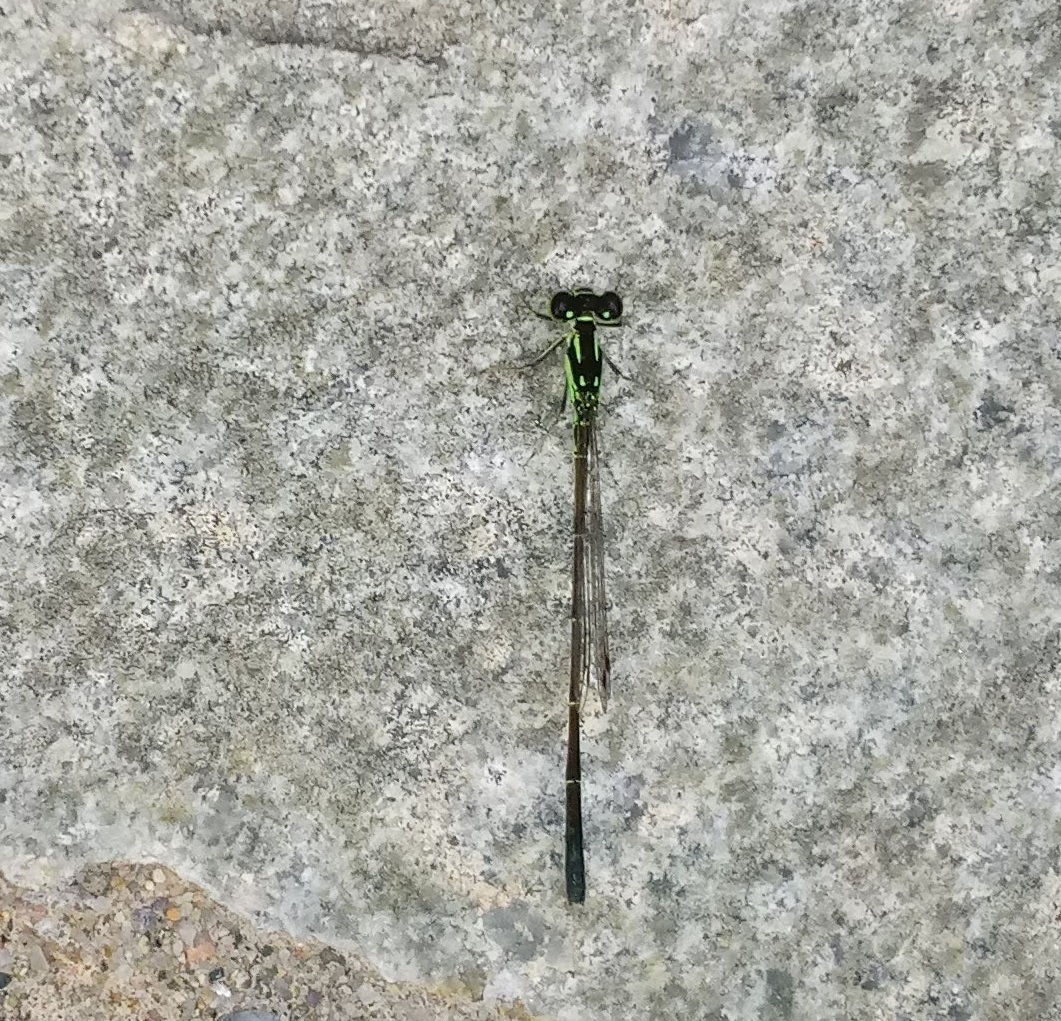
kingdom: Animalia
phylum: Arthropoda
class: Insecta
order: Odonata
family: Coenagrionidae
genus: Ischnura
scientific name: Ischnura posita
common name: Fragile forktail
